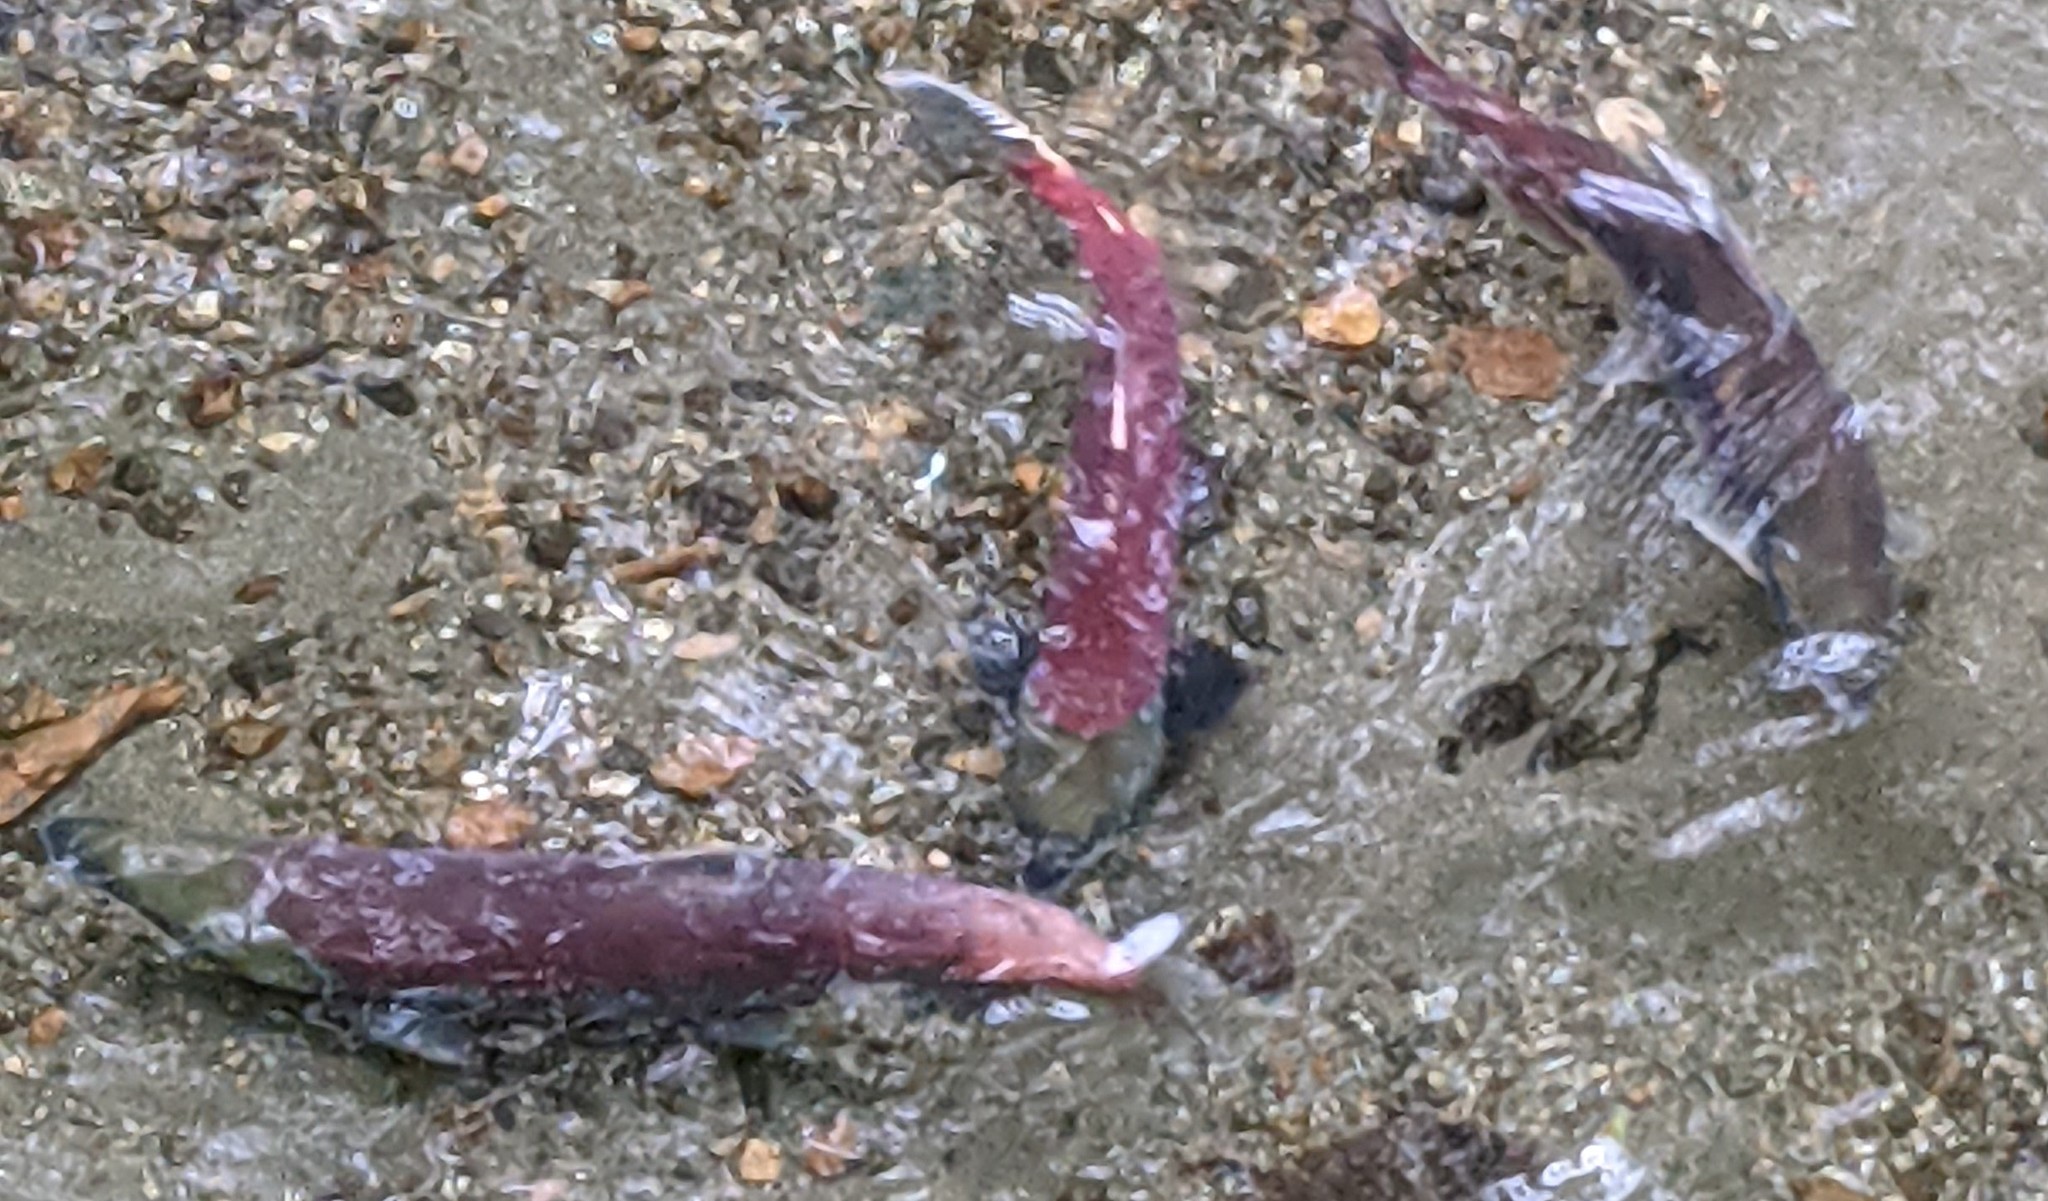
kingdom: Animalia
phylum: Chordata
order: Salmoniformes
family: Salmonidae
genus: Oncorhynchus
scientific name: Oncorhynchus nerka
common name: Sockeye salmon
